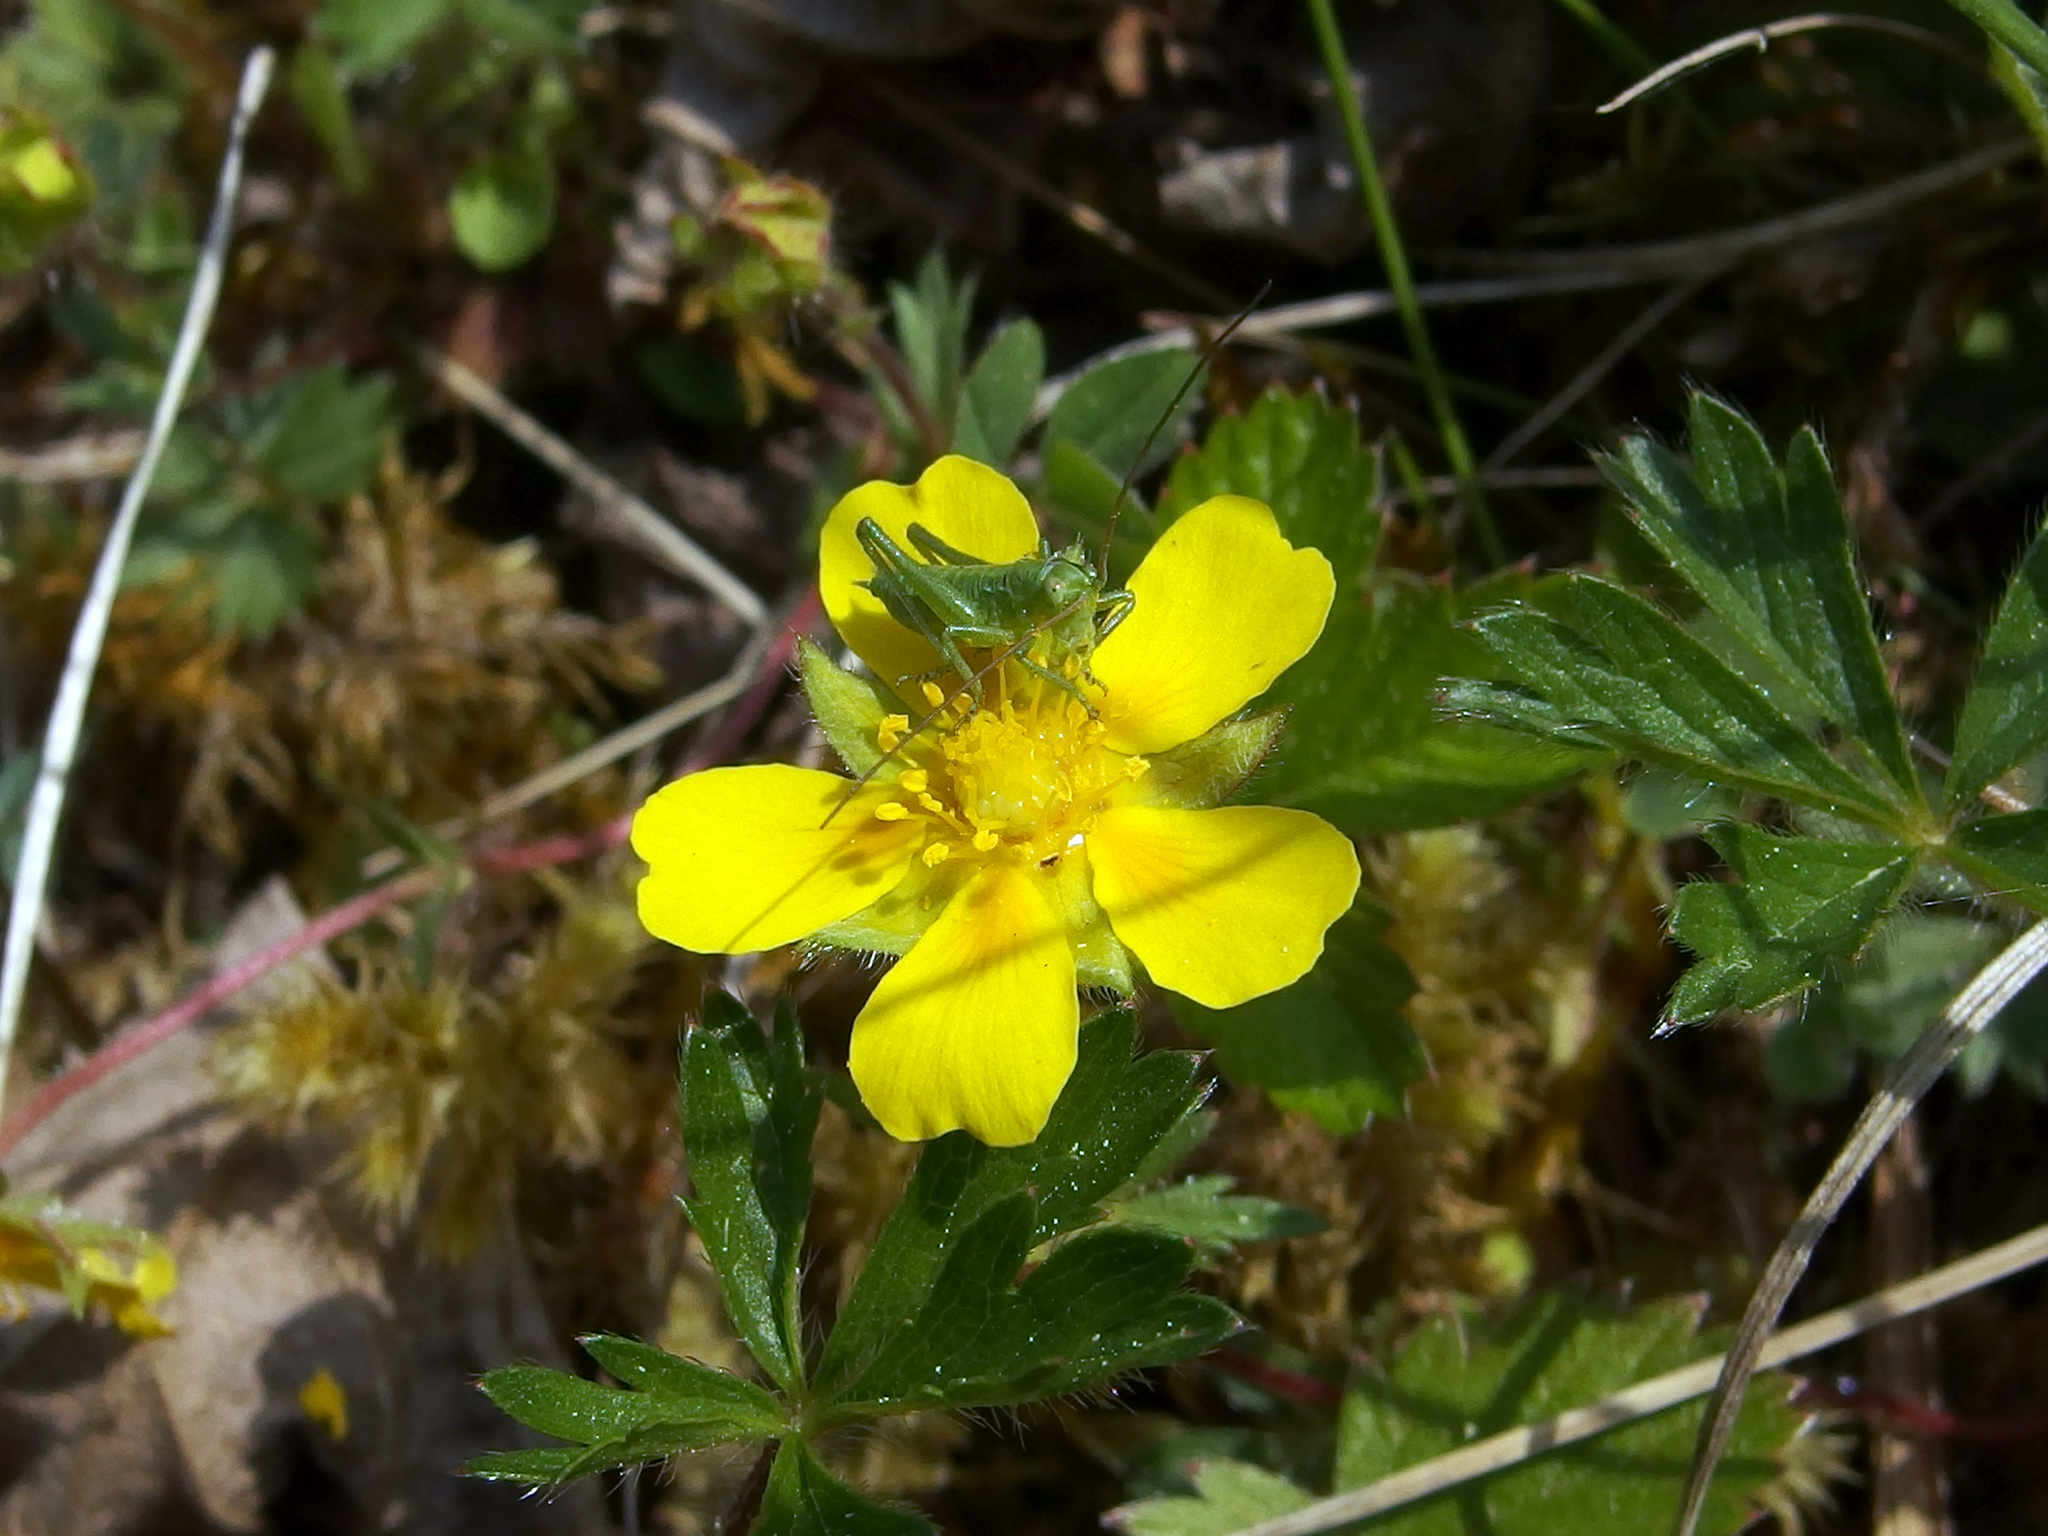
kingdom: Plantae
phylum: Tracheophyta
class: Magnoliopsida
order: Rosales
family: Rosaceae
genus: Potentilla
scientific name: Potentilla verna
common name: Spring cinquefoil
